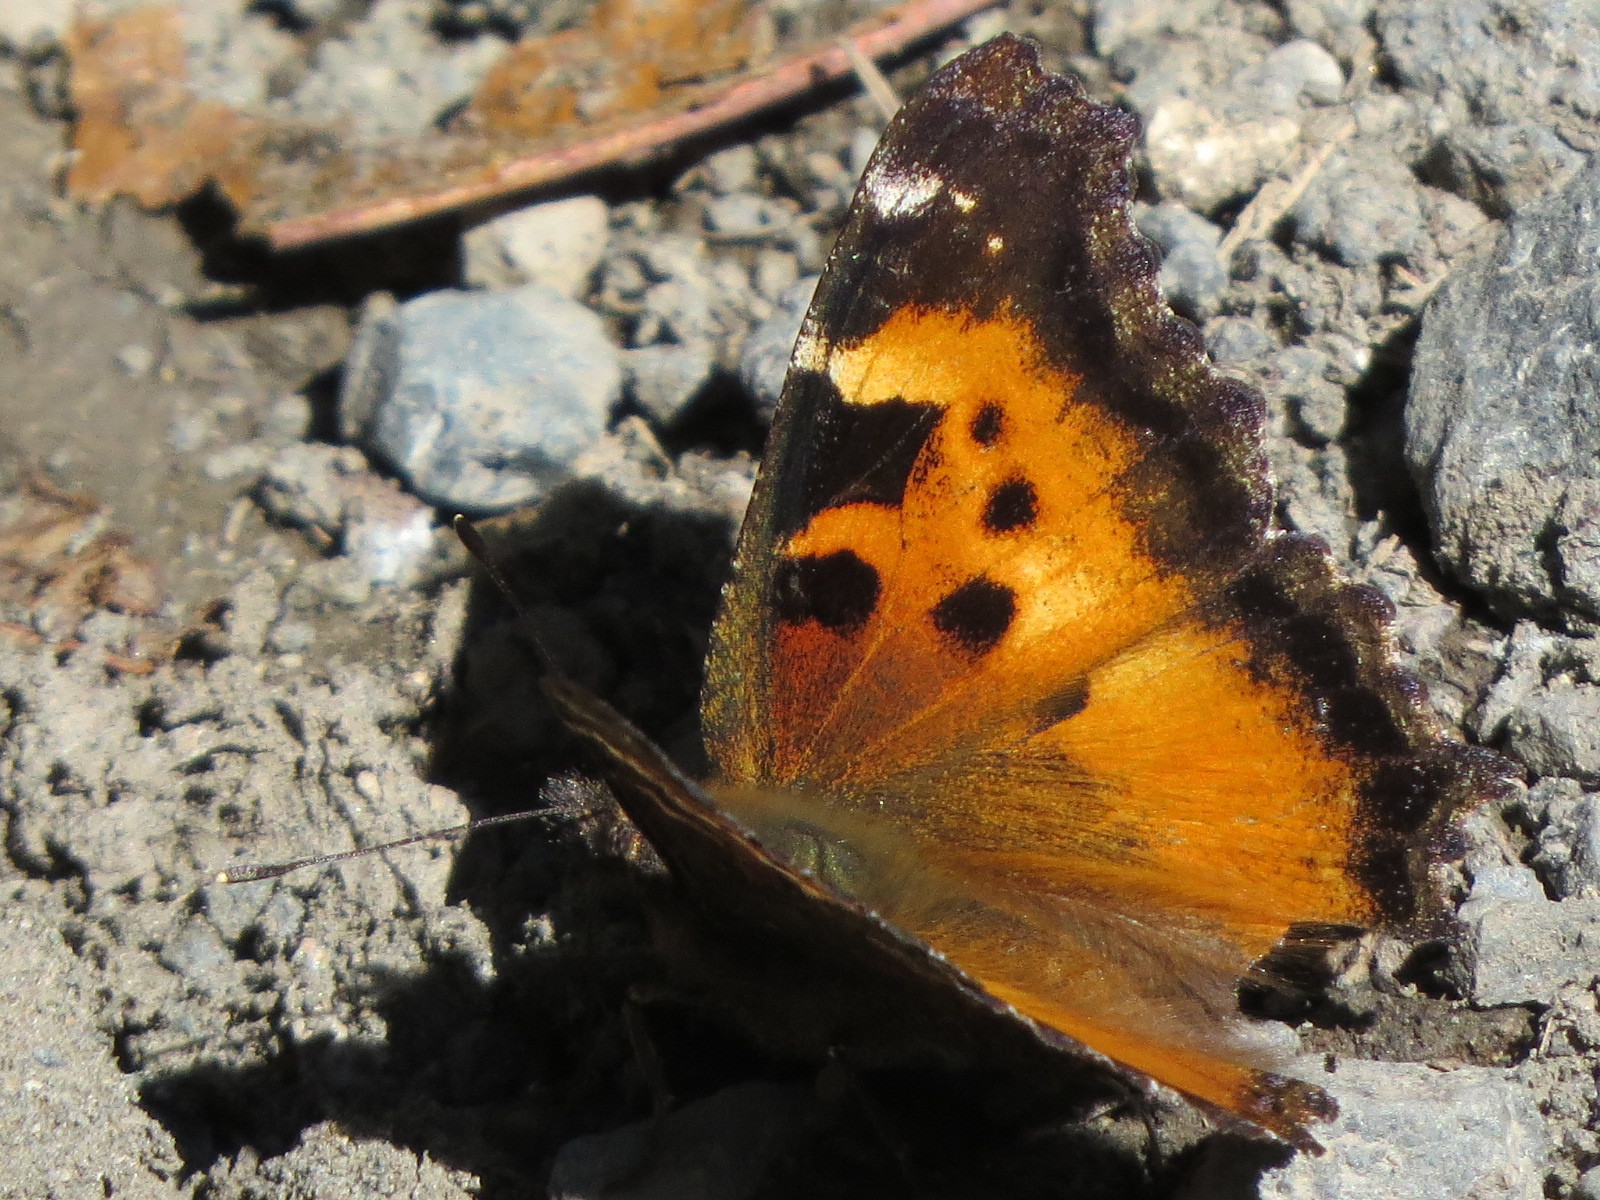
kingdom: Animalia
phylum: Arthropoda
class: Insecta
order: Lepidoptera
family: Nymphalidae
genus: Nymphalis
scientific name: Nymphalis californica
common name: California tortoiseshell
